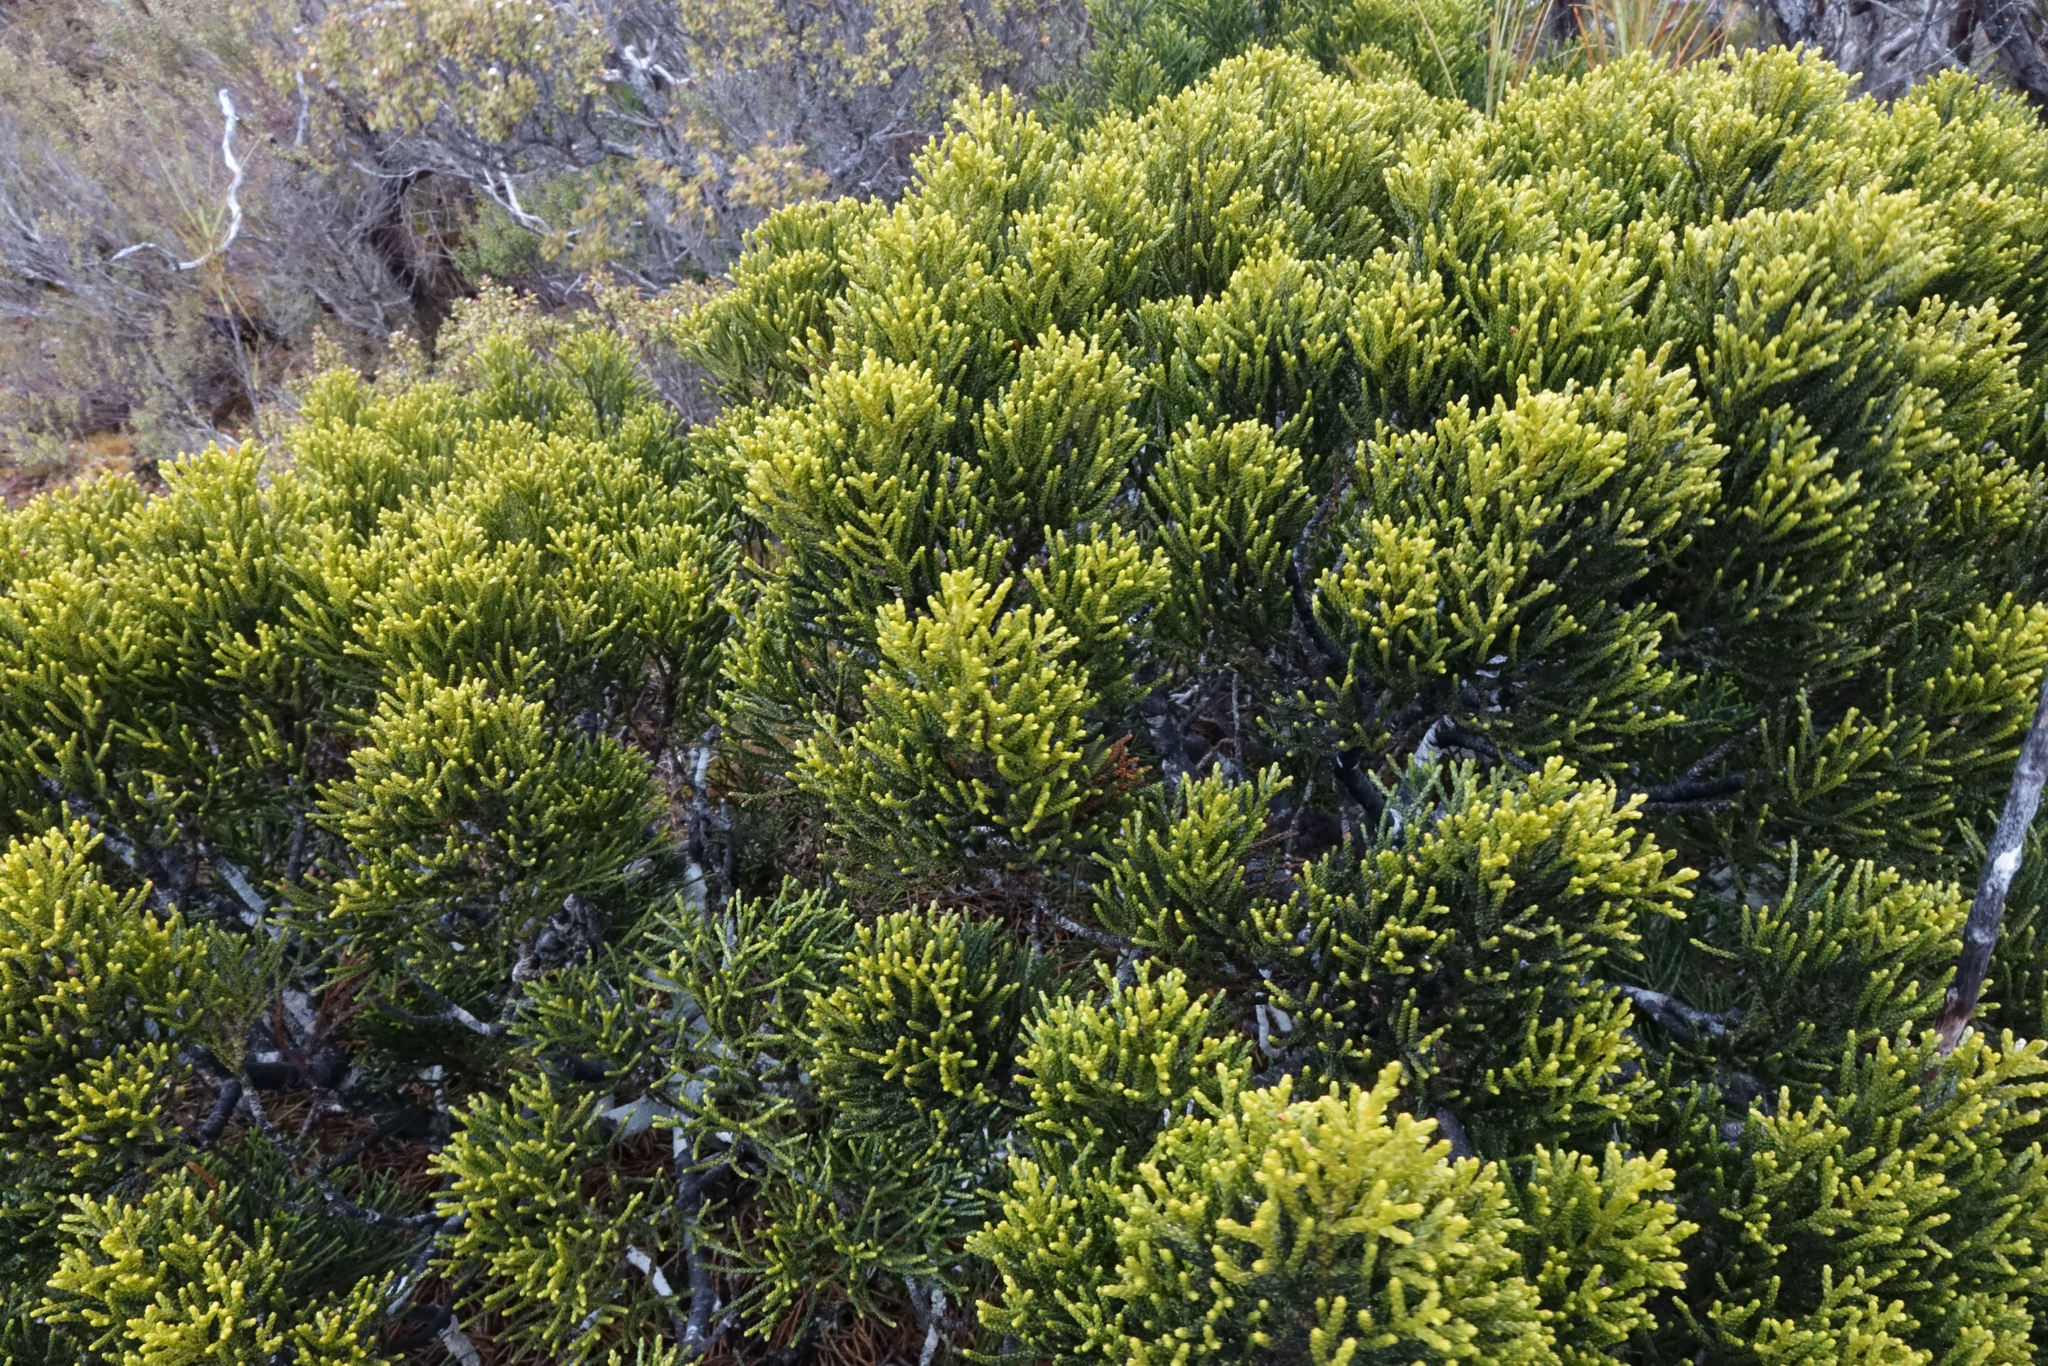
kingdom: Plantae
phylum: Tracheophyta
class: Pinopsida
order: Pinales
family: Podocarpaceae
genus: Halocarpus
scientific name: Halocarpus biformis
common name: Alpine tarwood
